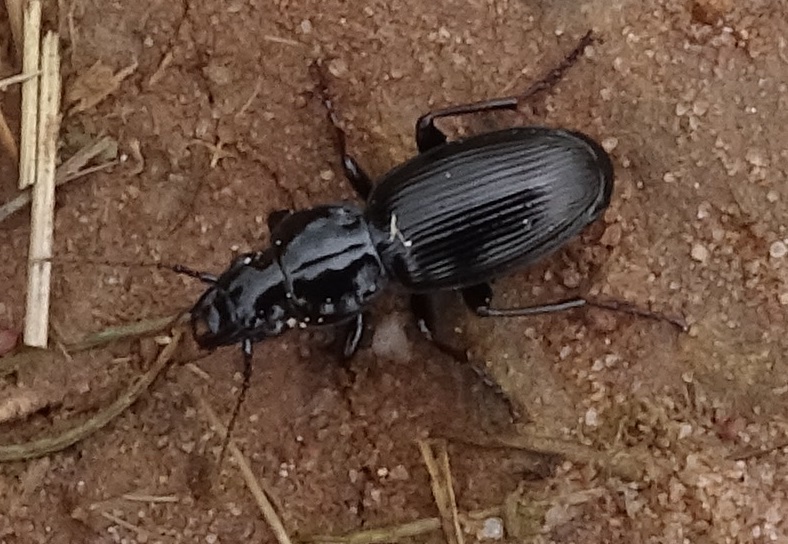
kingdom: Animalia
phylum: Arthropoda
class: Insecta
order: Coleoptera
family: Carabidae
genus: Pterostichus
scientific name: Pterostichus madidus
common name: Black clock
